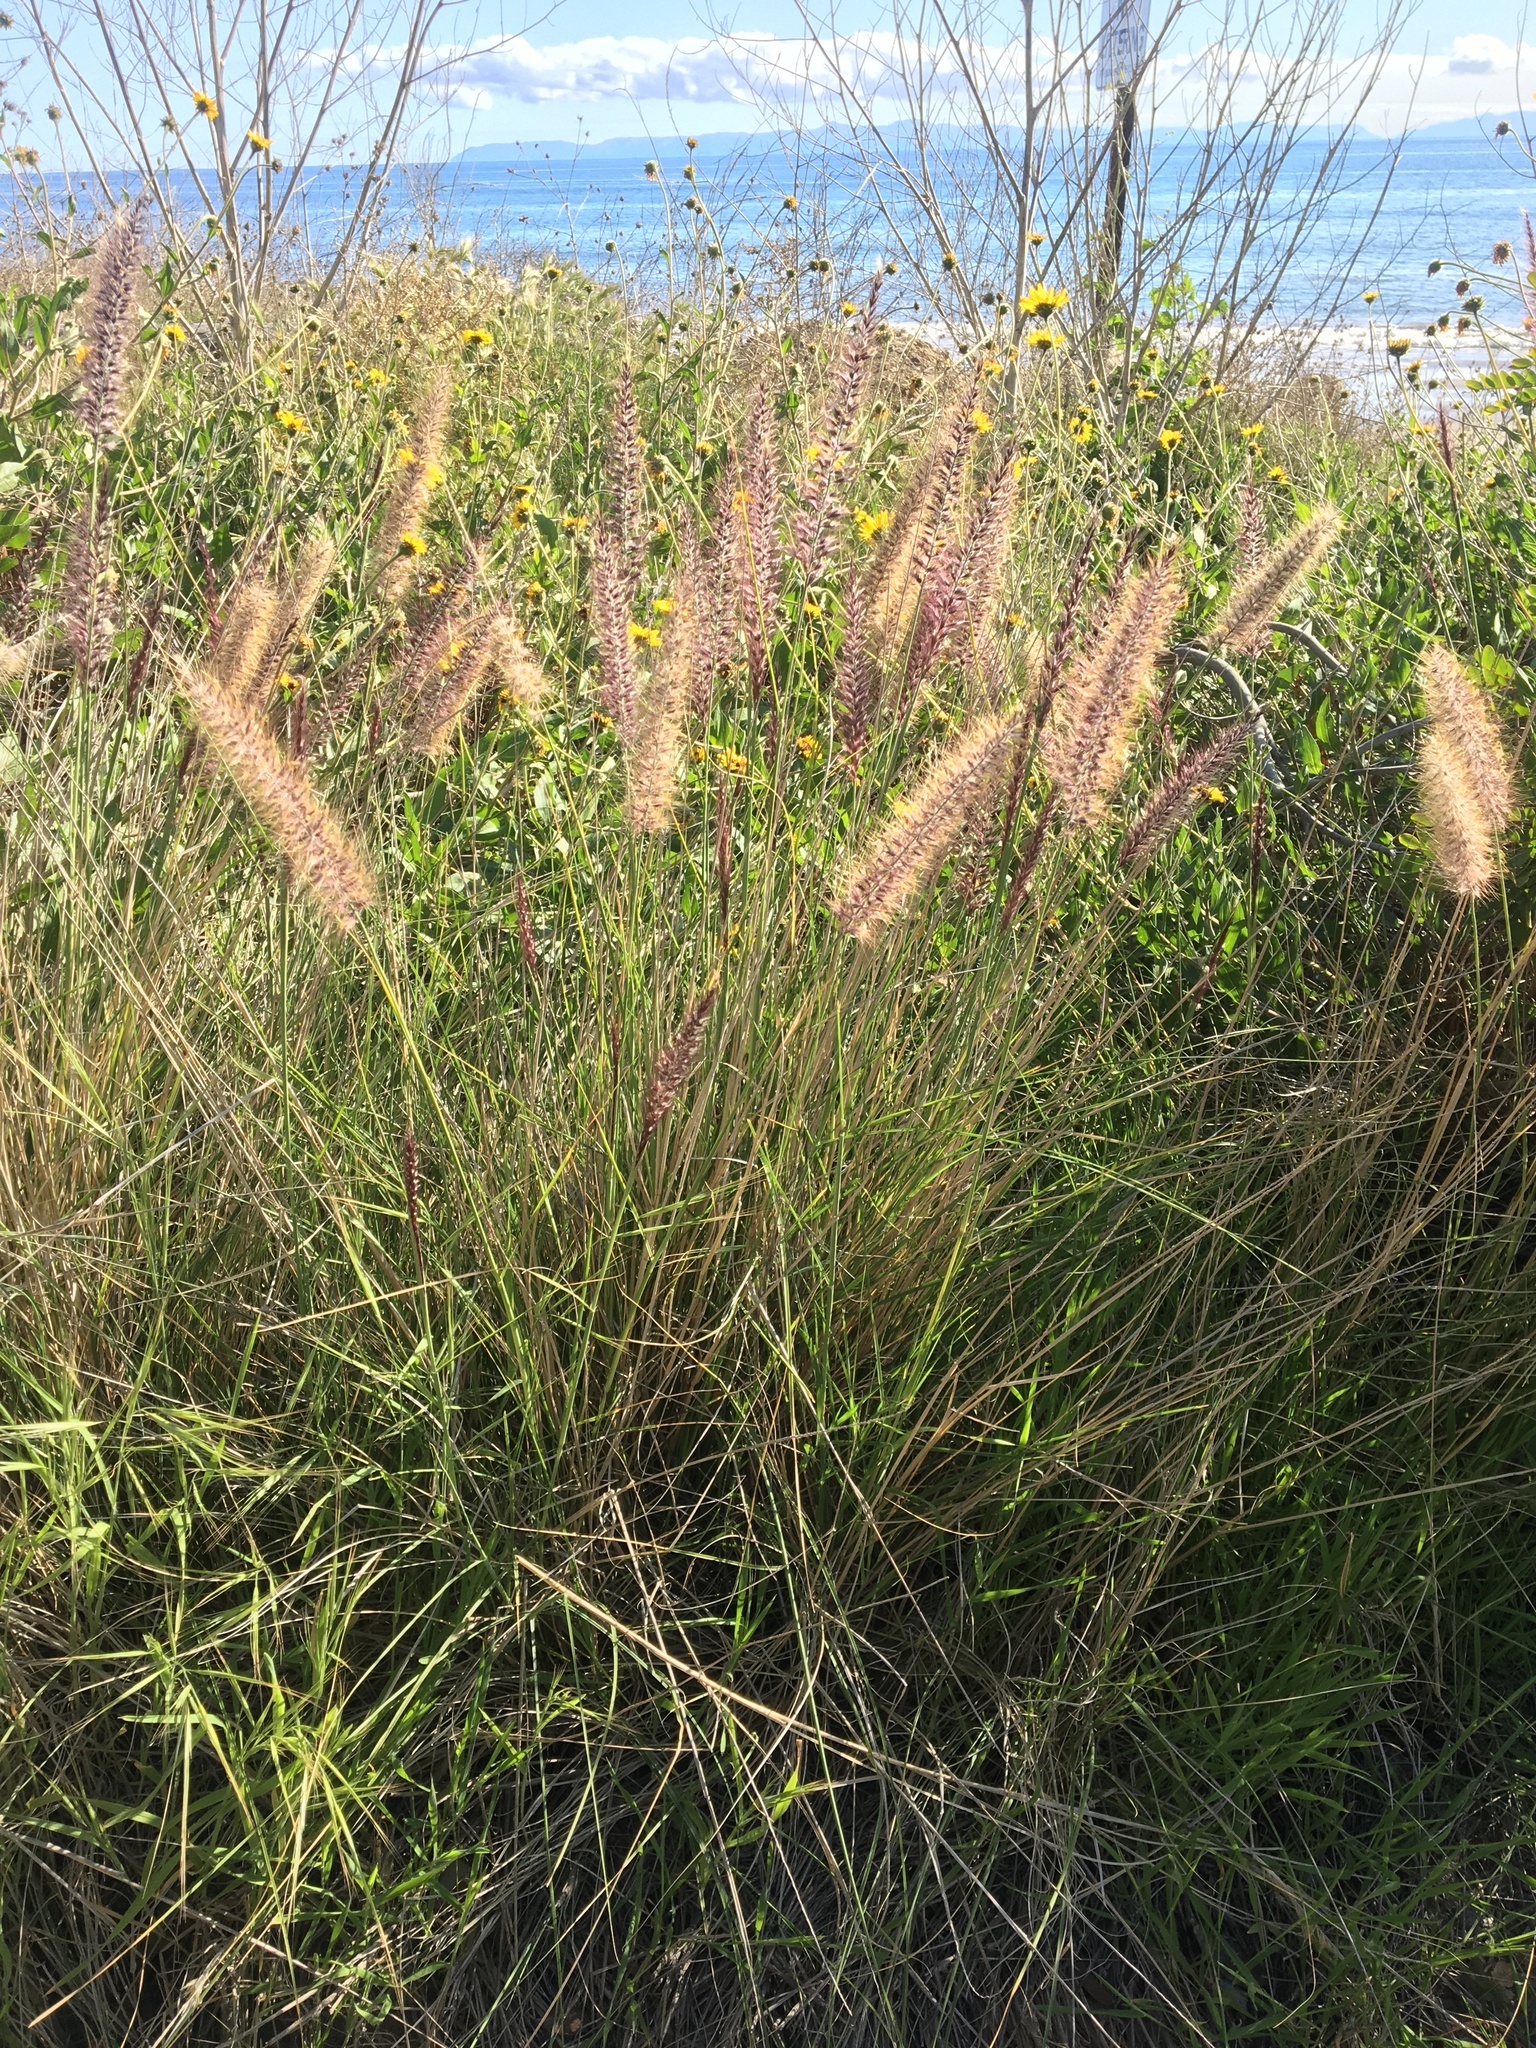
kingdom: Plantae
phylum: Tracheophyta
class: Liliopsida
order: Poales
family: Poaceae
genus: Cenchrus
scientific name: Cenchrus setaceus
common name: Crimson fountaingrass
